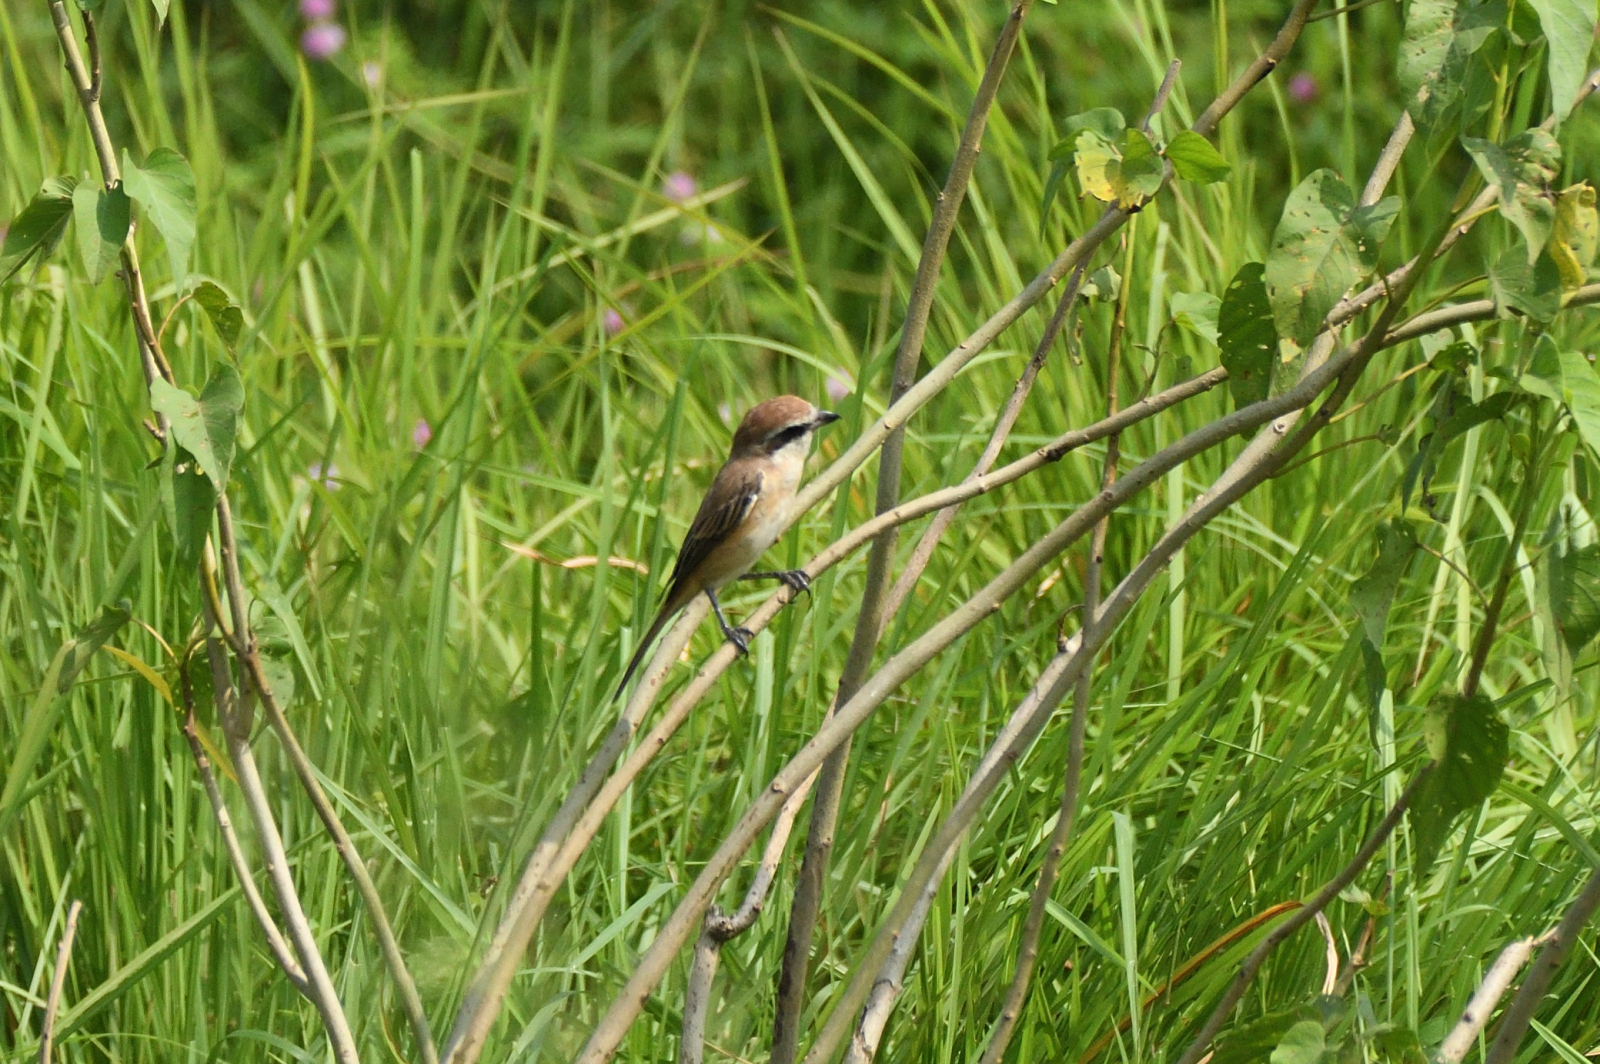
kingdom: Animalia
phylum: Chordata
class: Aves
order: Passeriformes
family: Laniidae
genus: Lanius
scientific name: Lanius cristatus
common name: Brown shrike
